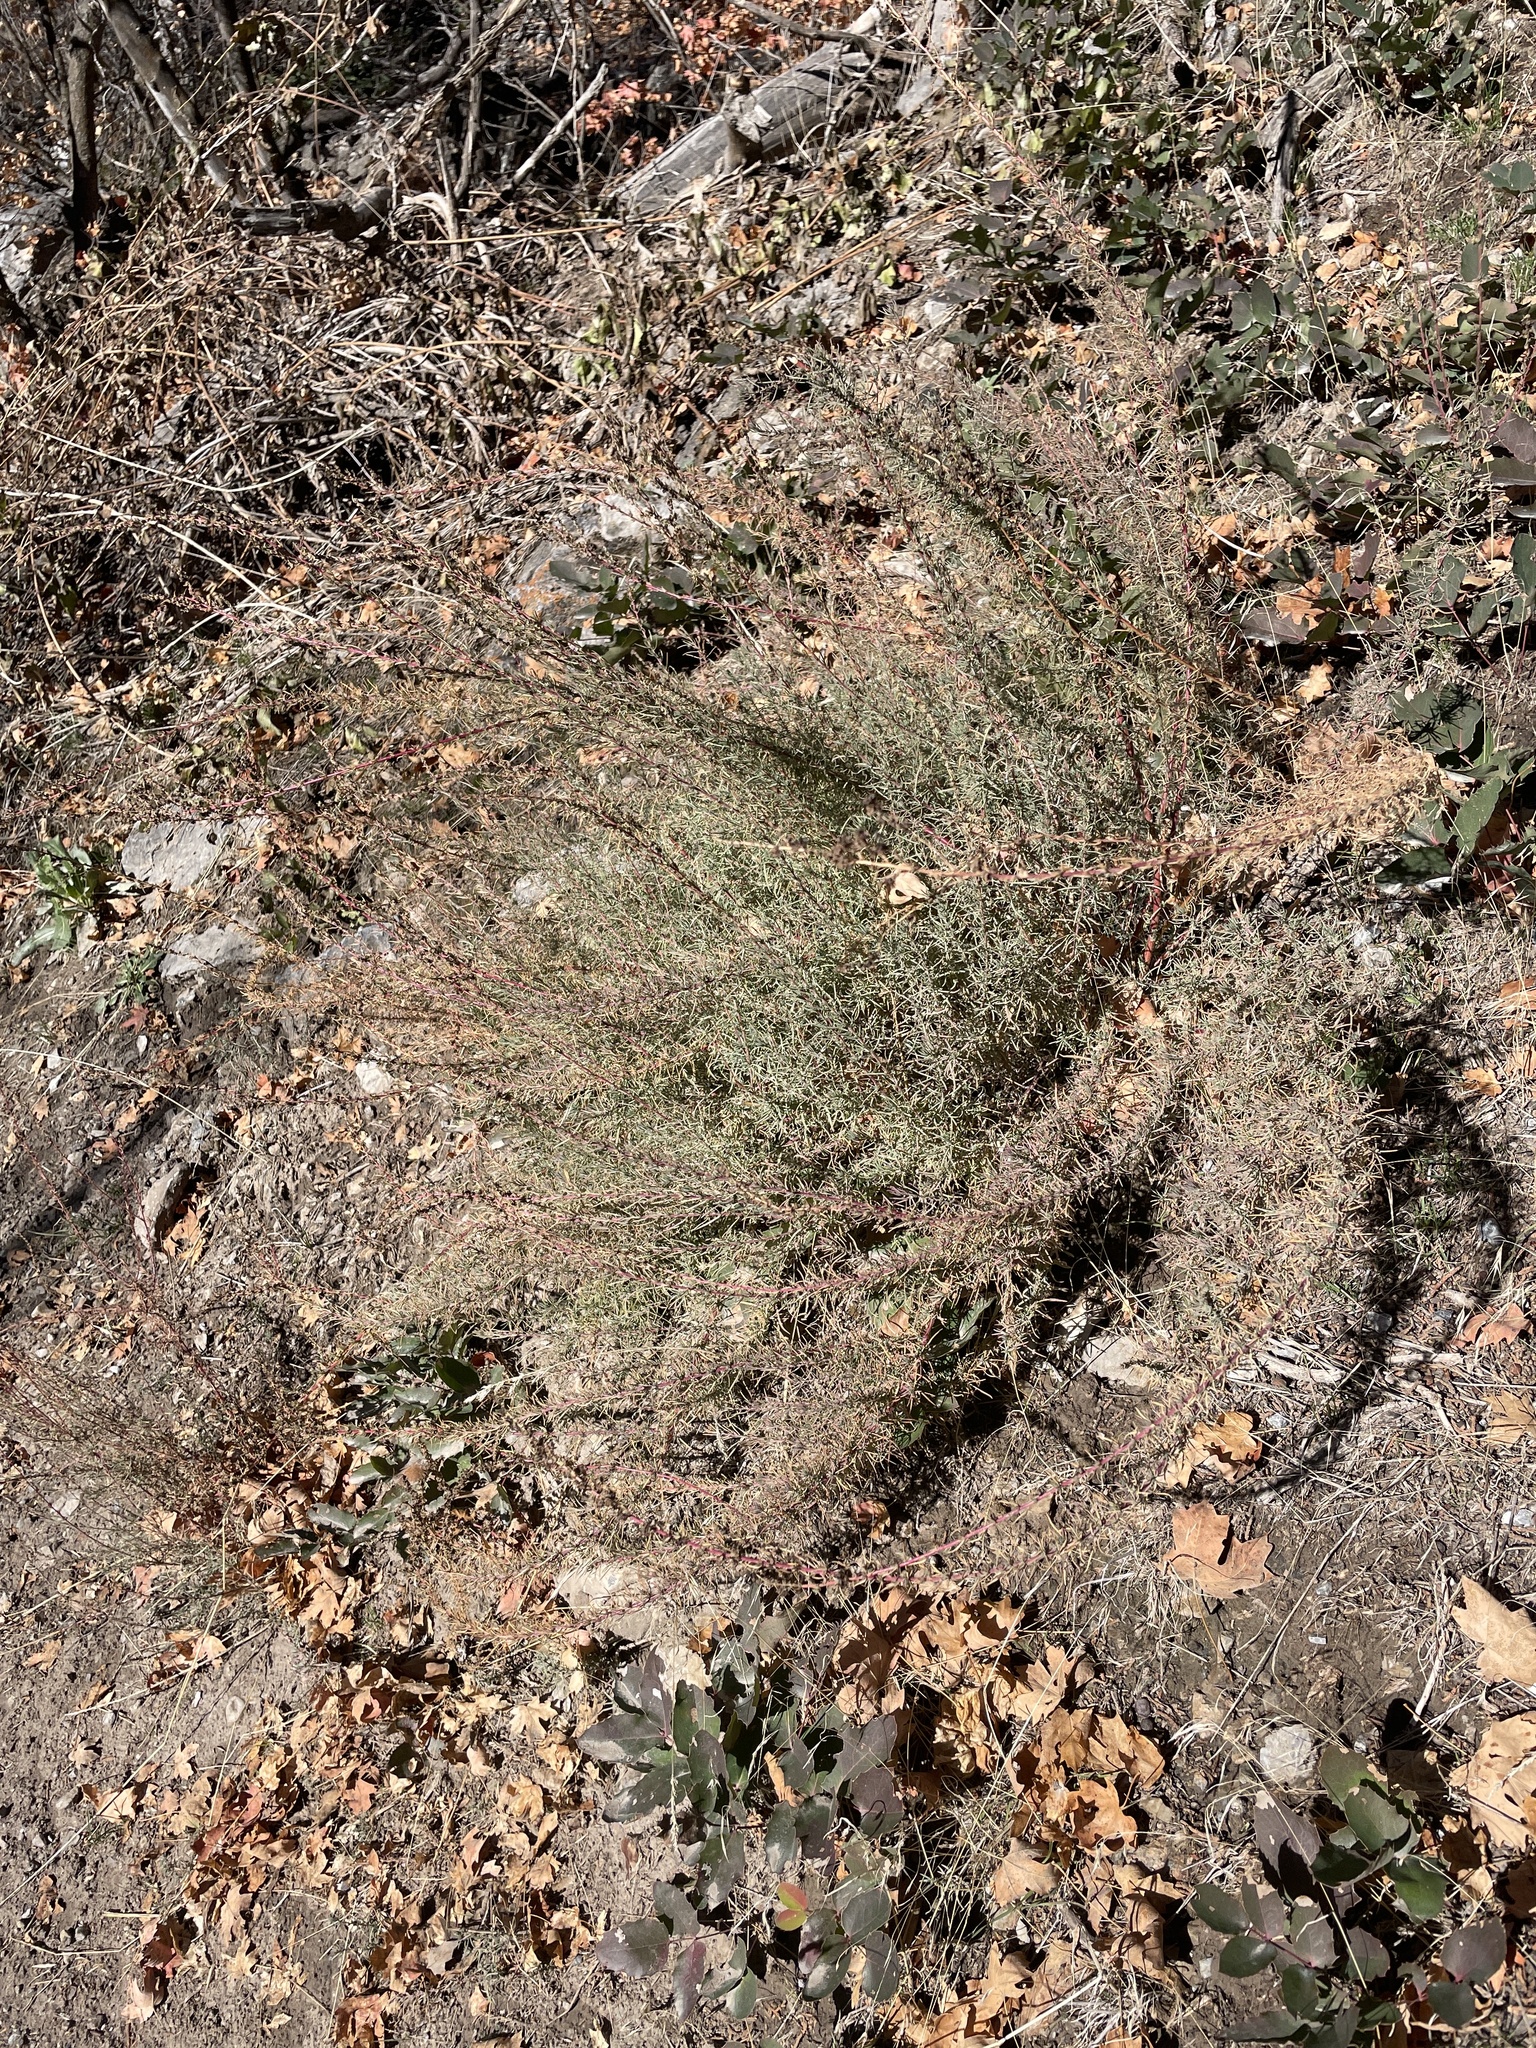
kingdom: Plantae
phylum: Tracheophyta
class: Magnoliopsida
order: Caryophyllales
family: Amaranthaceae
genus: Neokochia
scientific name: Neokochia americana
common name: Perennial summer-cypress
